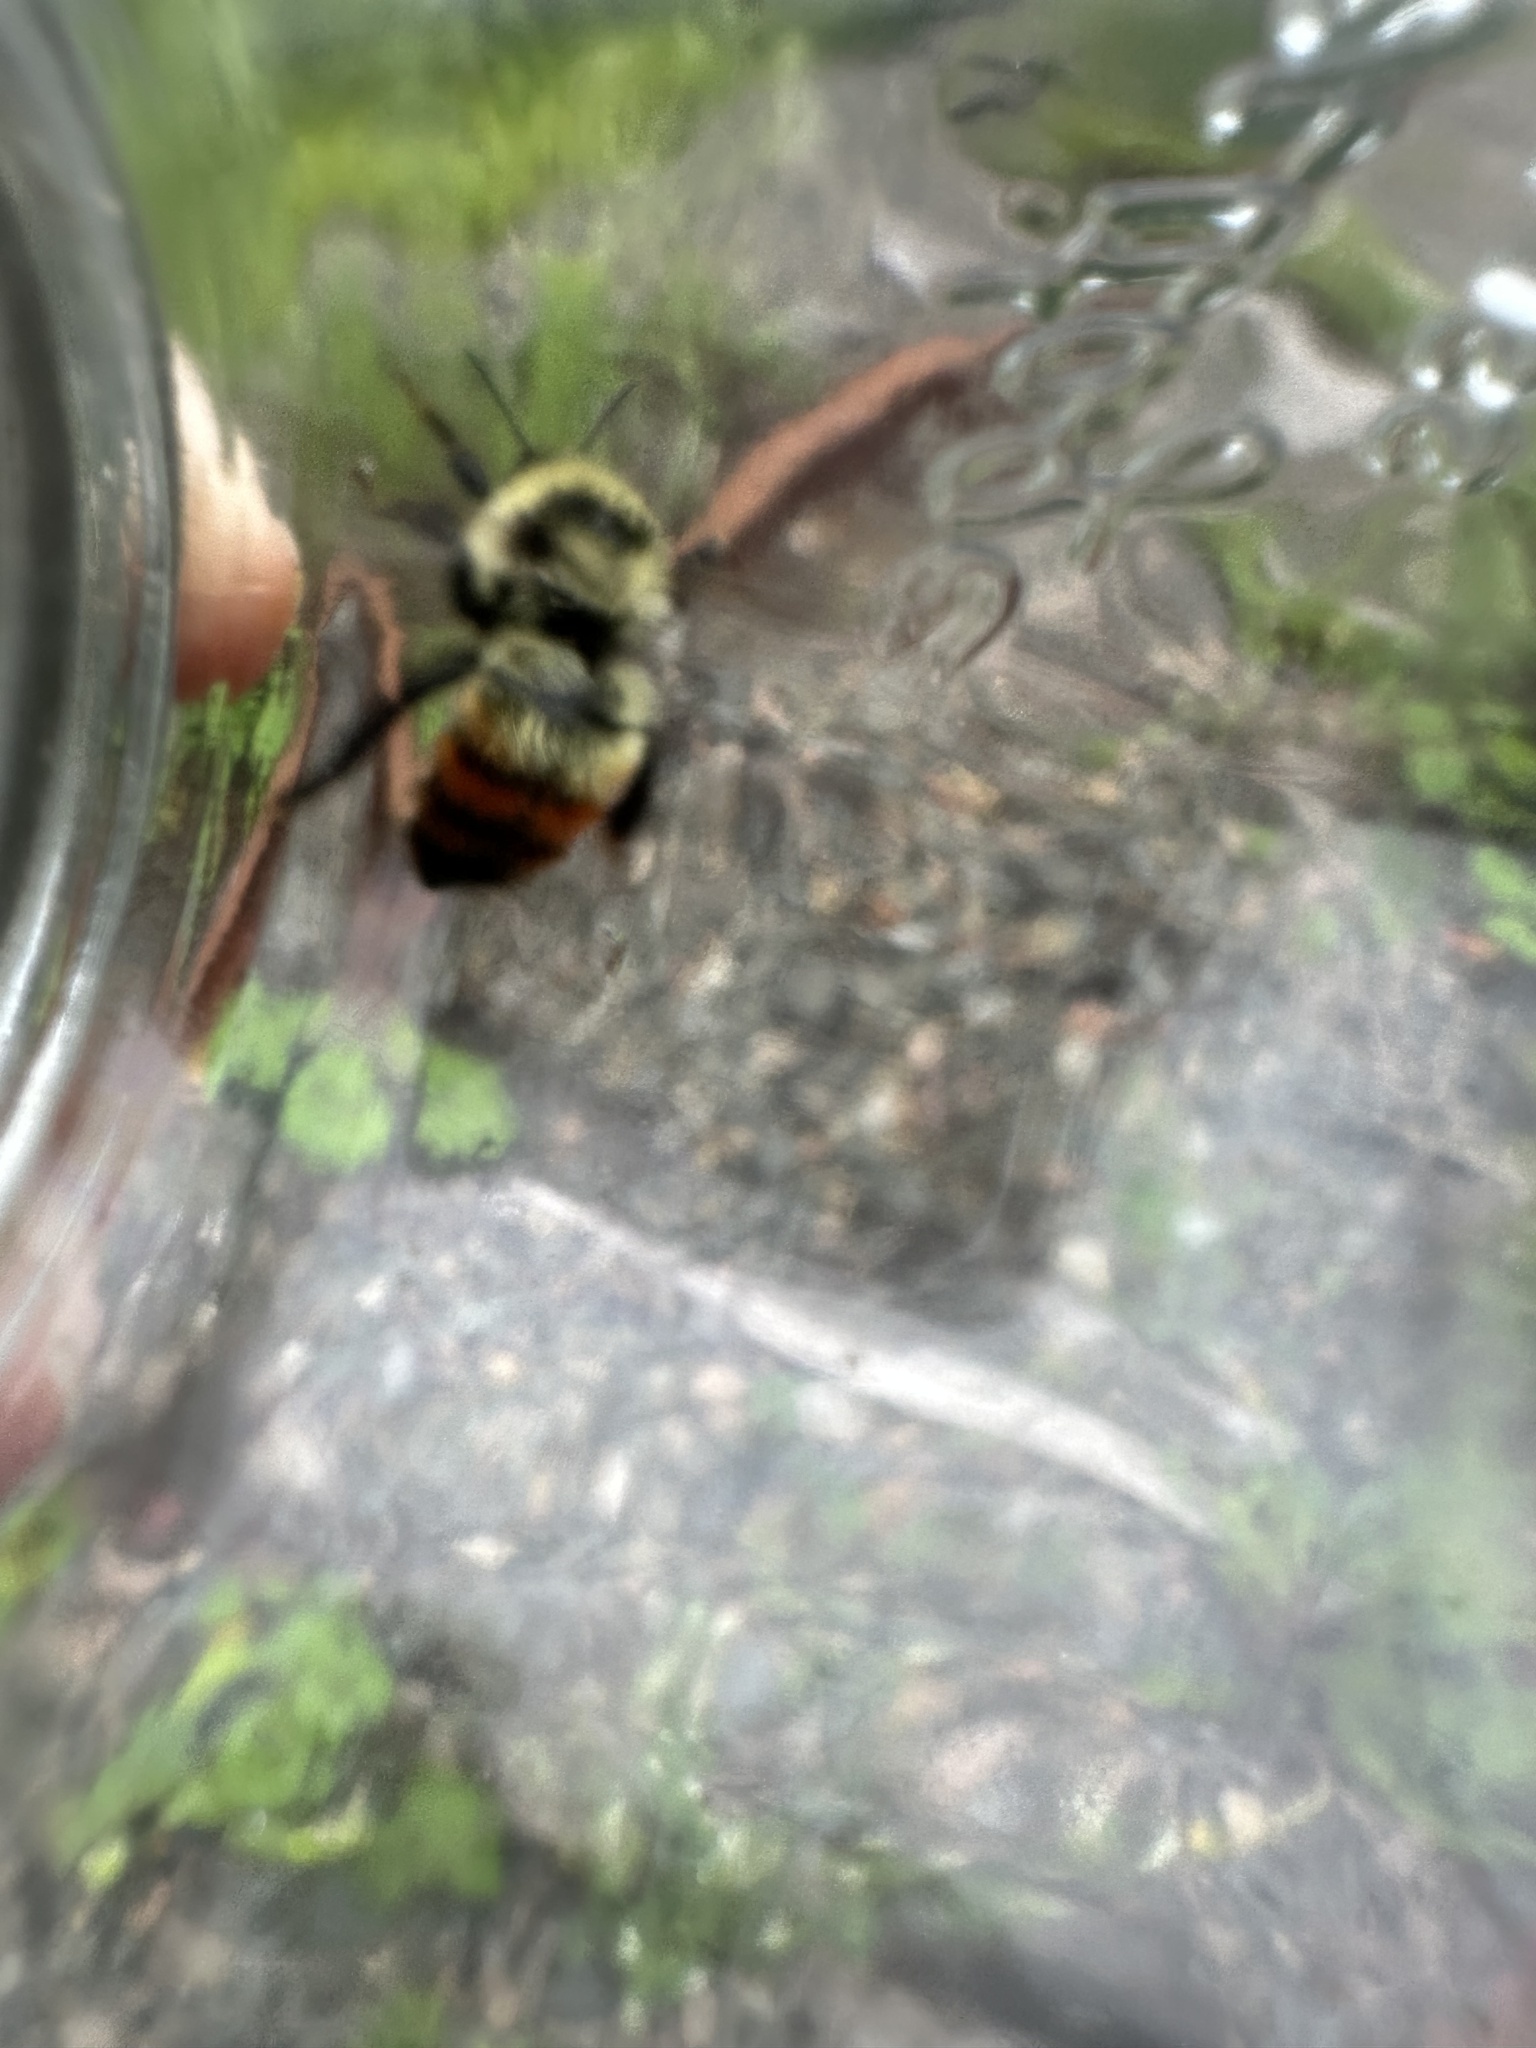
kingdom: Animalia
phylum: Arthropoda
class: Insecta
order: Hymenoptera
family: Apidae
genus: Bombus
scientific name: Bombus rufocinctus
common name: Red-belted bumble bee
